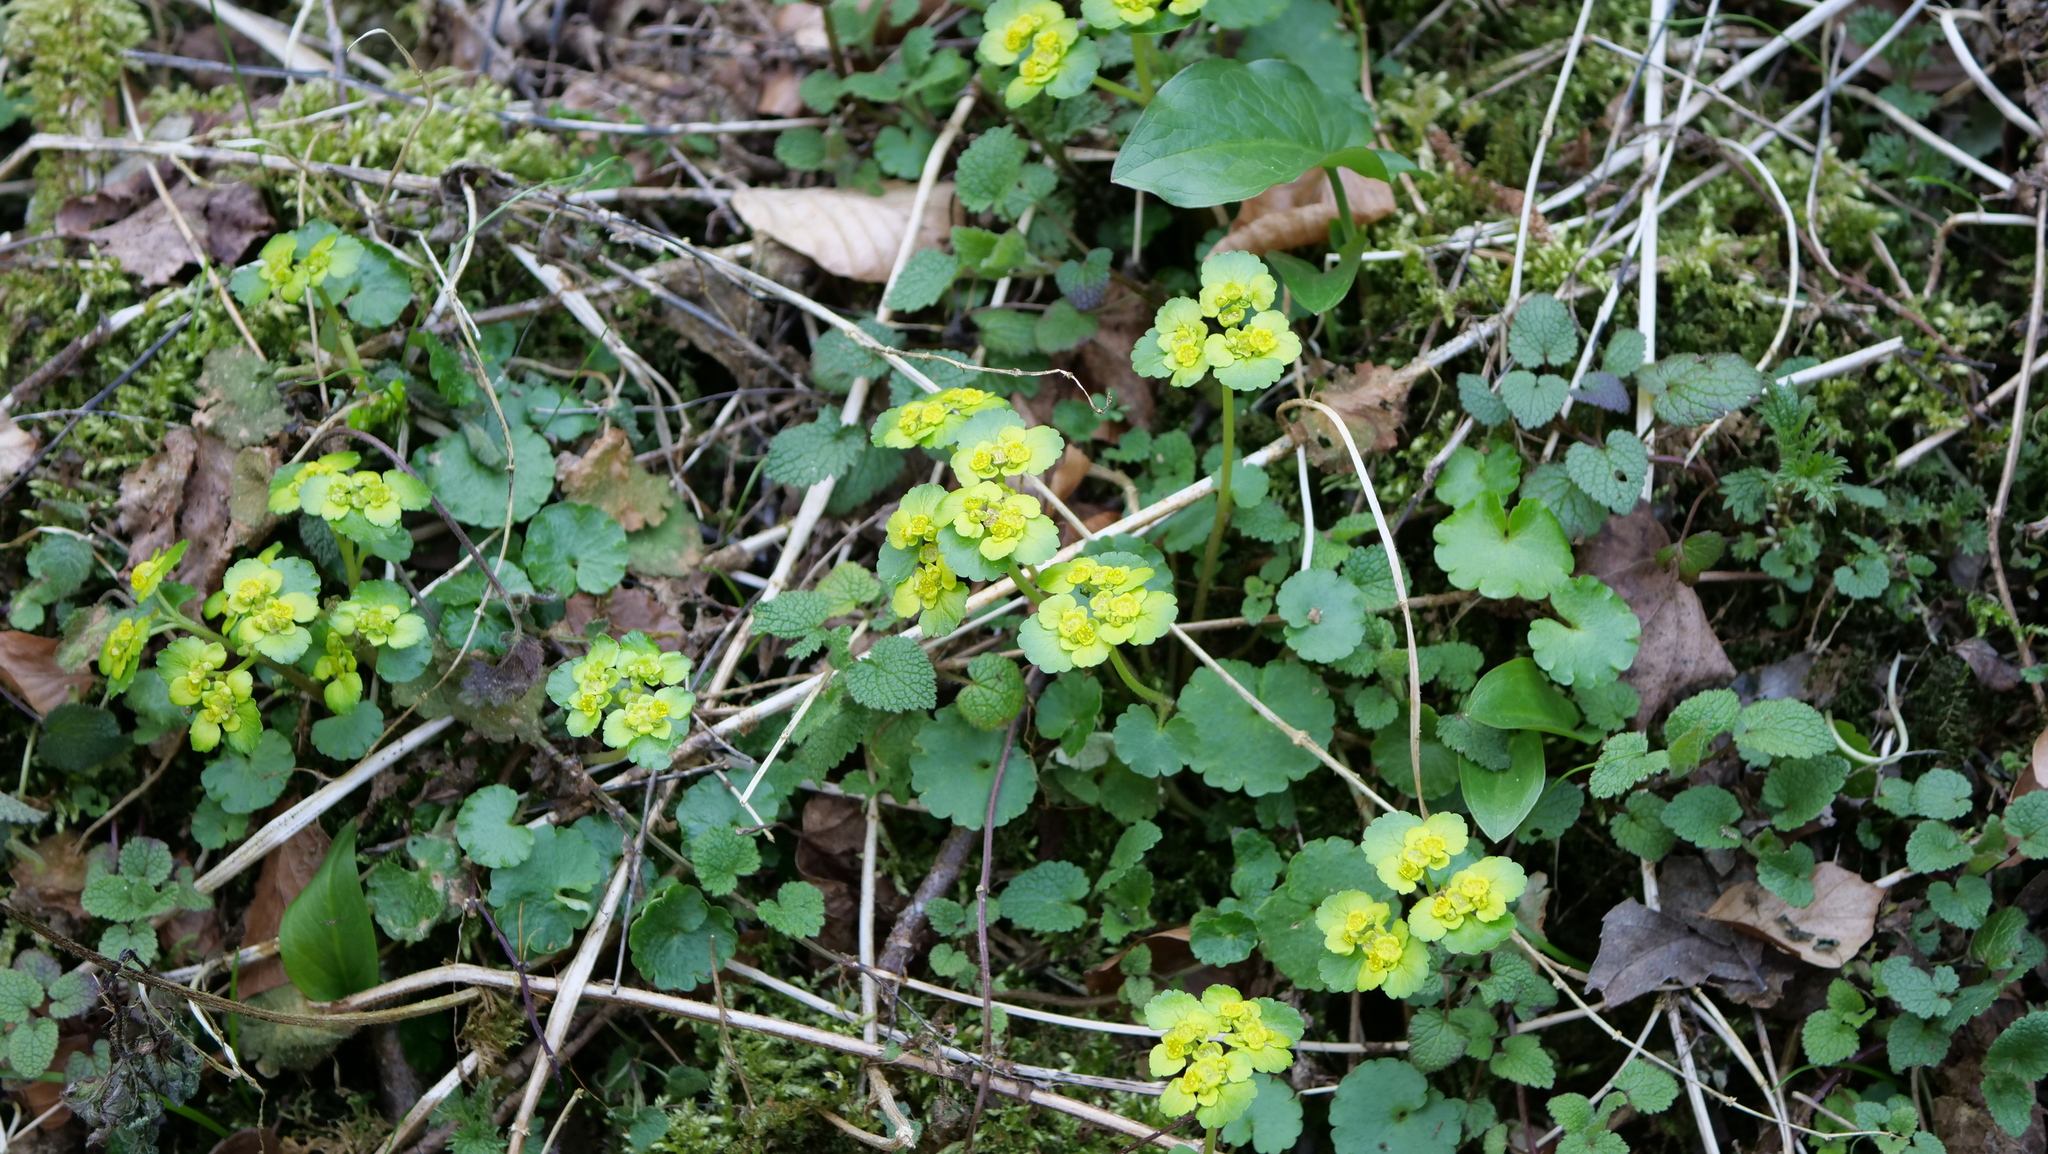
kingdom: Plantae
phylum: Tracheophyta
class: Magnoliopsida
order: Saxifragales
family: Saxifragaceae
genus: Chrysosplenium
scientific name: Chrysosplenium alternifolium
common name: Alternate-leaved golden-saxifrage
